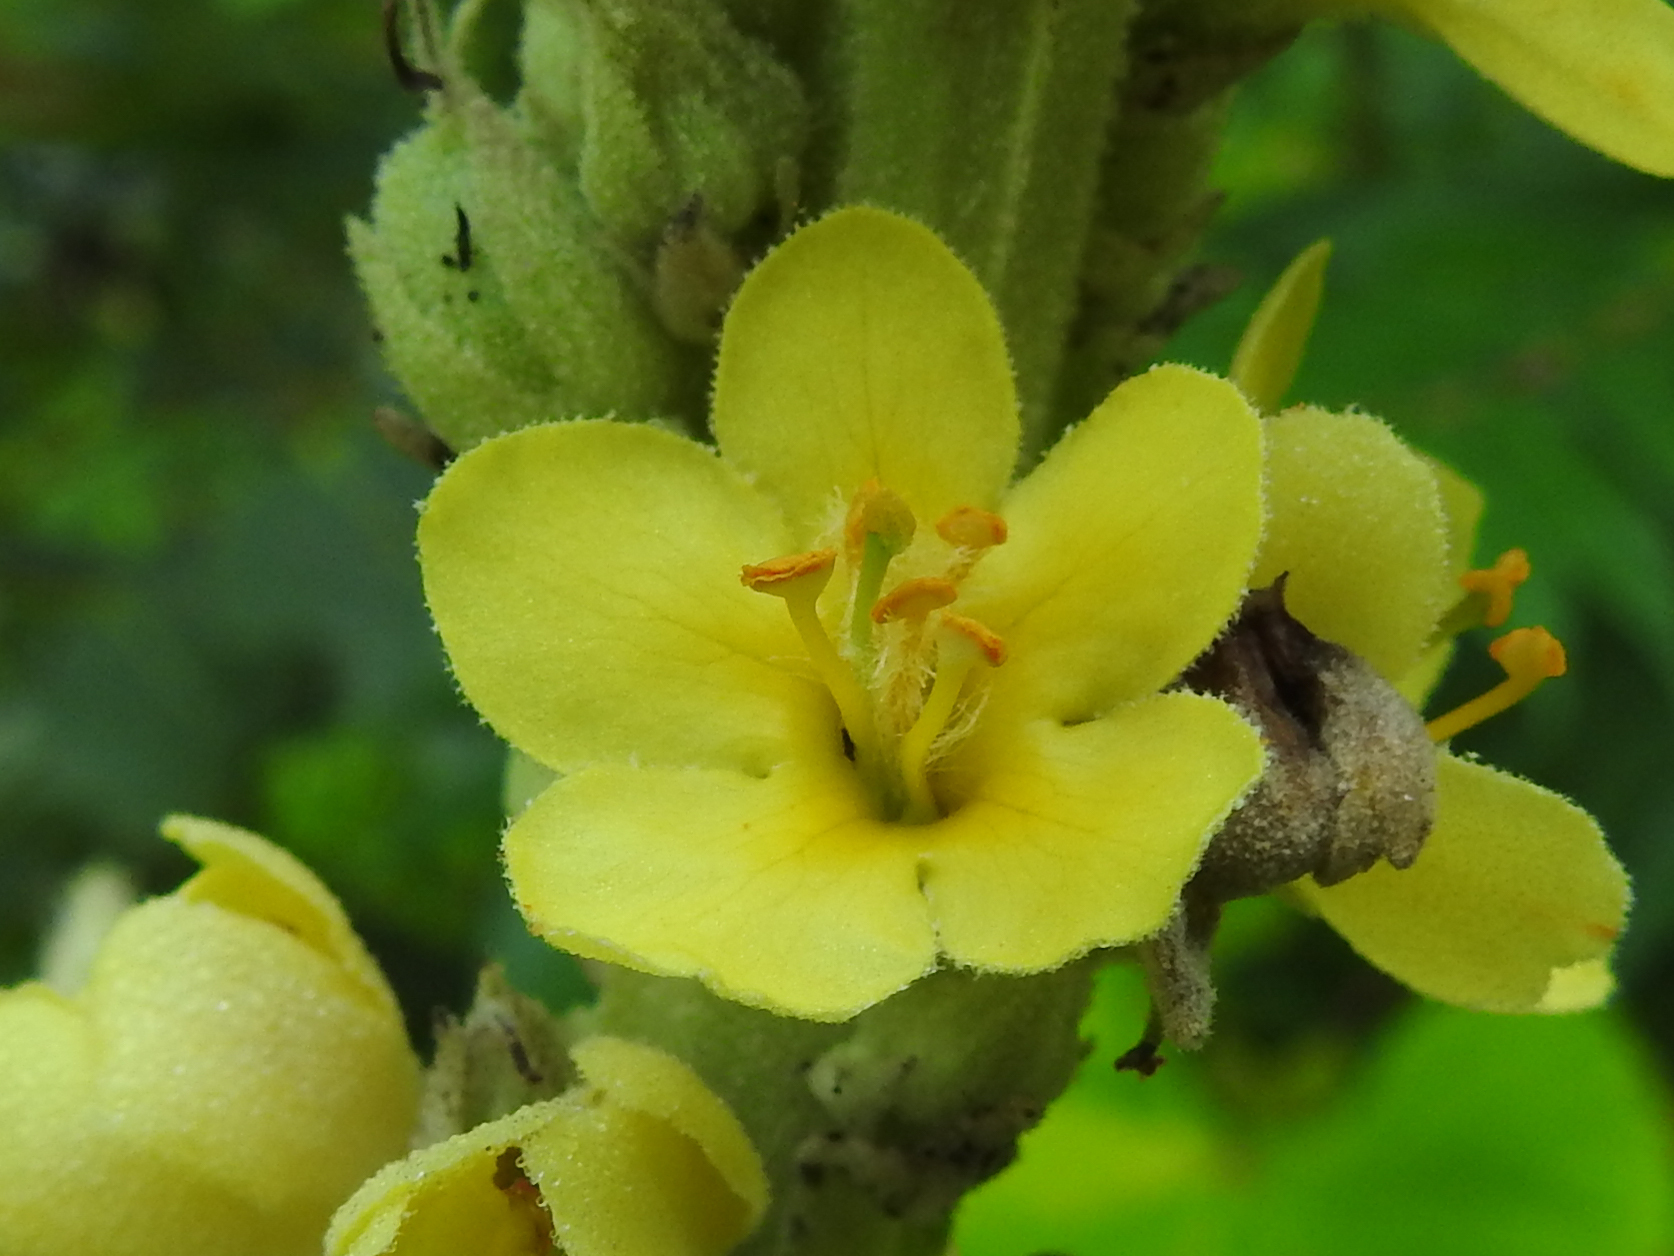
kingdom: Plantae
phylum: Tracheophyta
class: Magnoliopsida
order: Lamiales
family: Scrophulariaceae
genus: Verbascum
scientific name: Verbascum thapsus
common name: Common mullein
